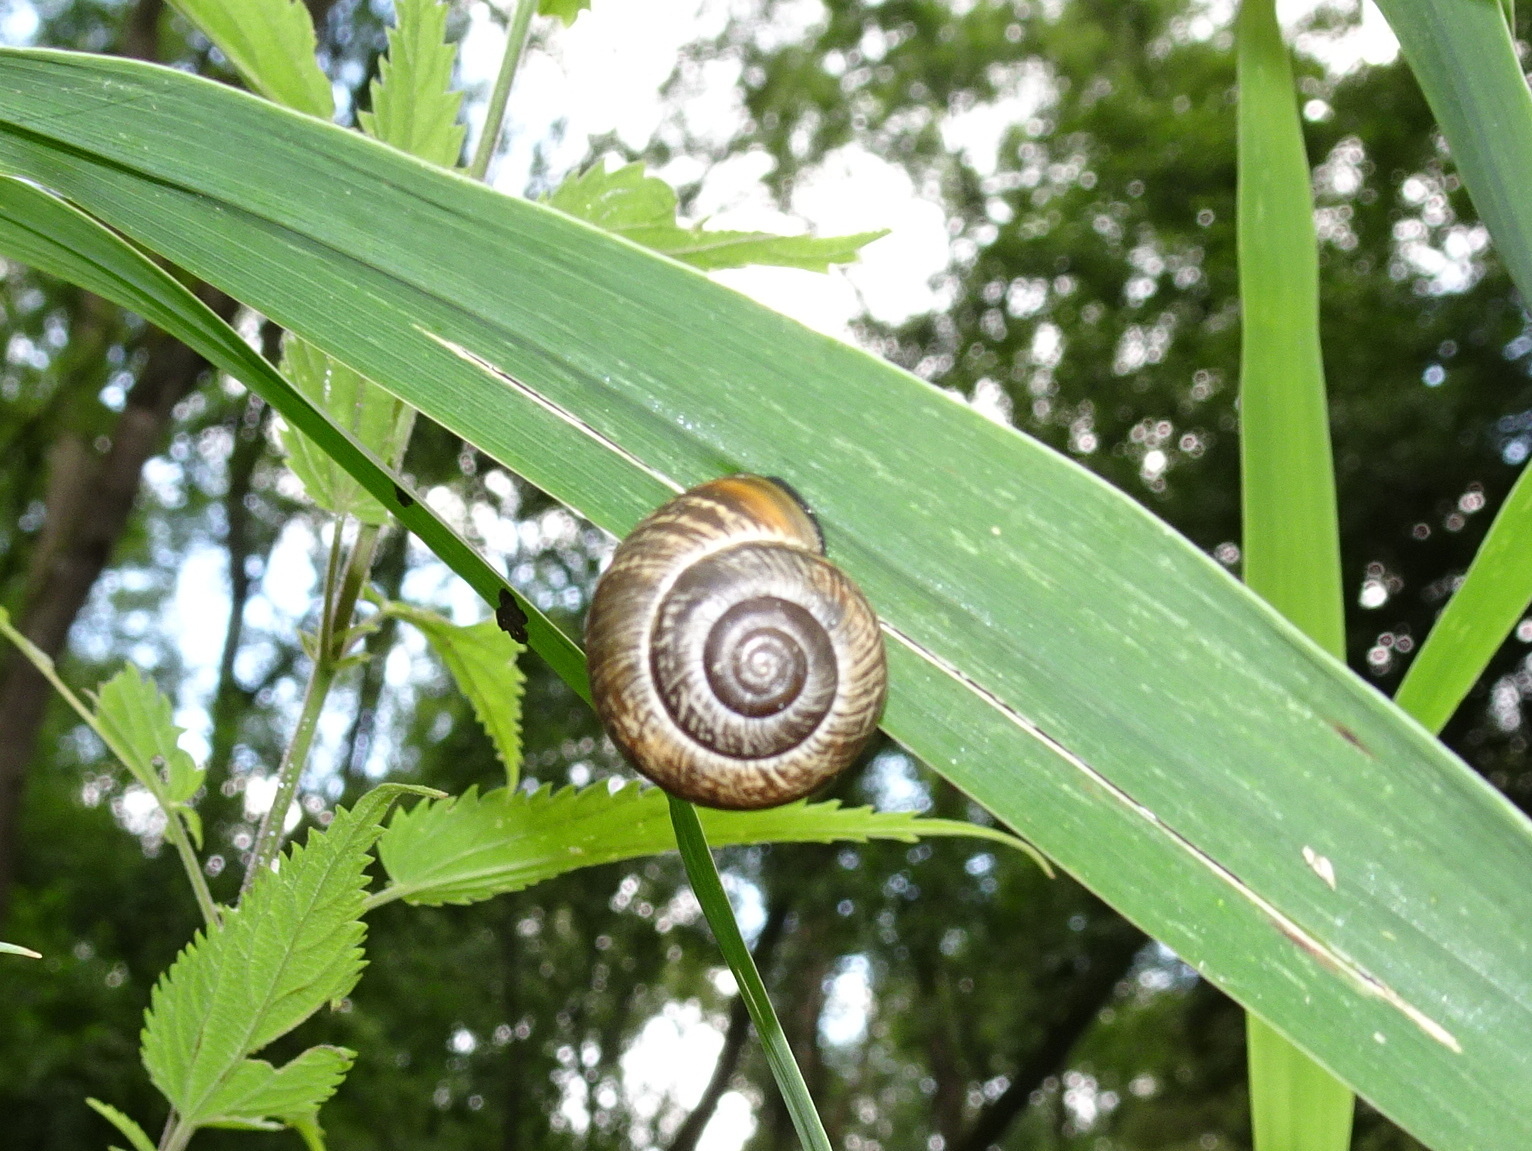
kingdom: Animalia
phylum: Mollusca
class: Gastropoda
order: Stylommatophora
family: Helicidae
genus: Arianta
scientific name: Arianta arbustorum
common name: Copse snail
